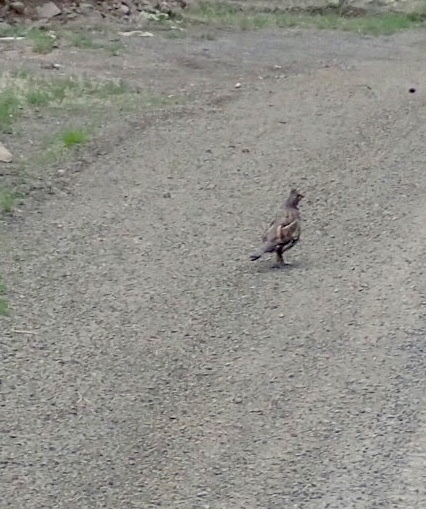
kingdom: Animalia
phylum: Chordata
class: Aves
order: Galliformes
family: Phasianidae
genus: Bonasa
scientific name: Bonasa umbellus
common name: Ruffed grouse
